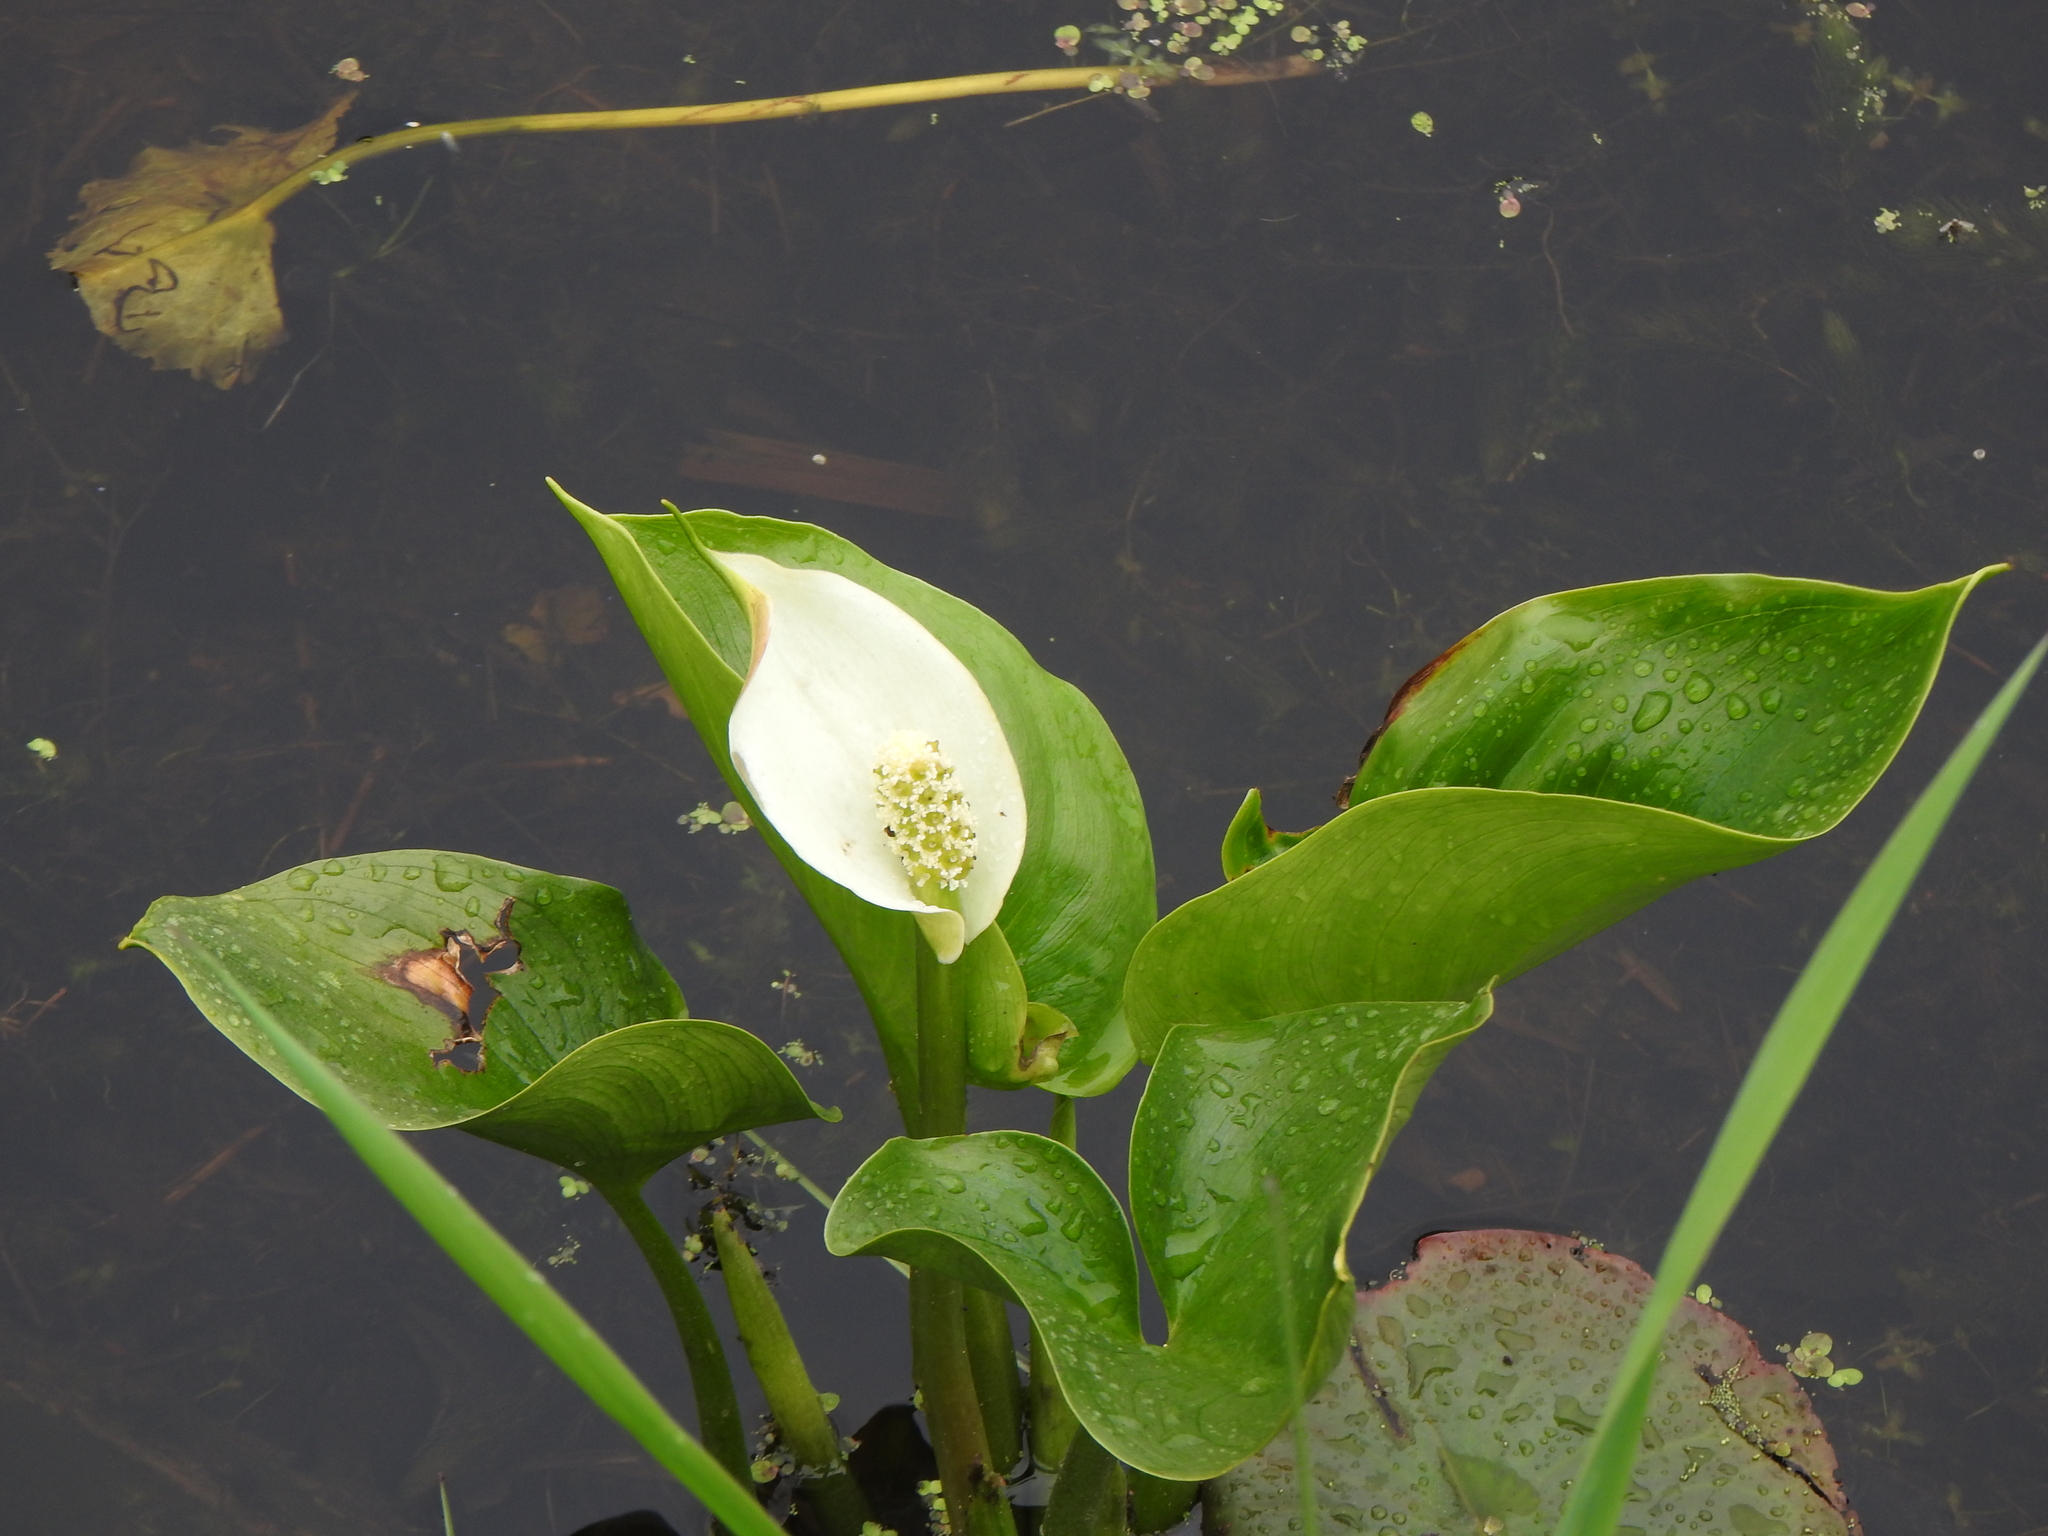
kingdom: Plantae
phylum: Tracheophyta
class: Liliopsida
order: Alismatales
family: Araceae
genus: Calla
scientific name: Calla palustris
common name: Bog arum
